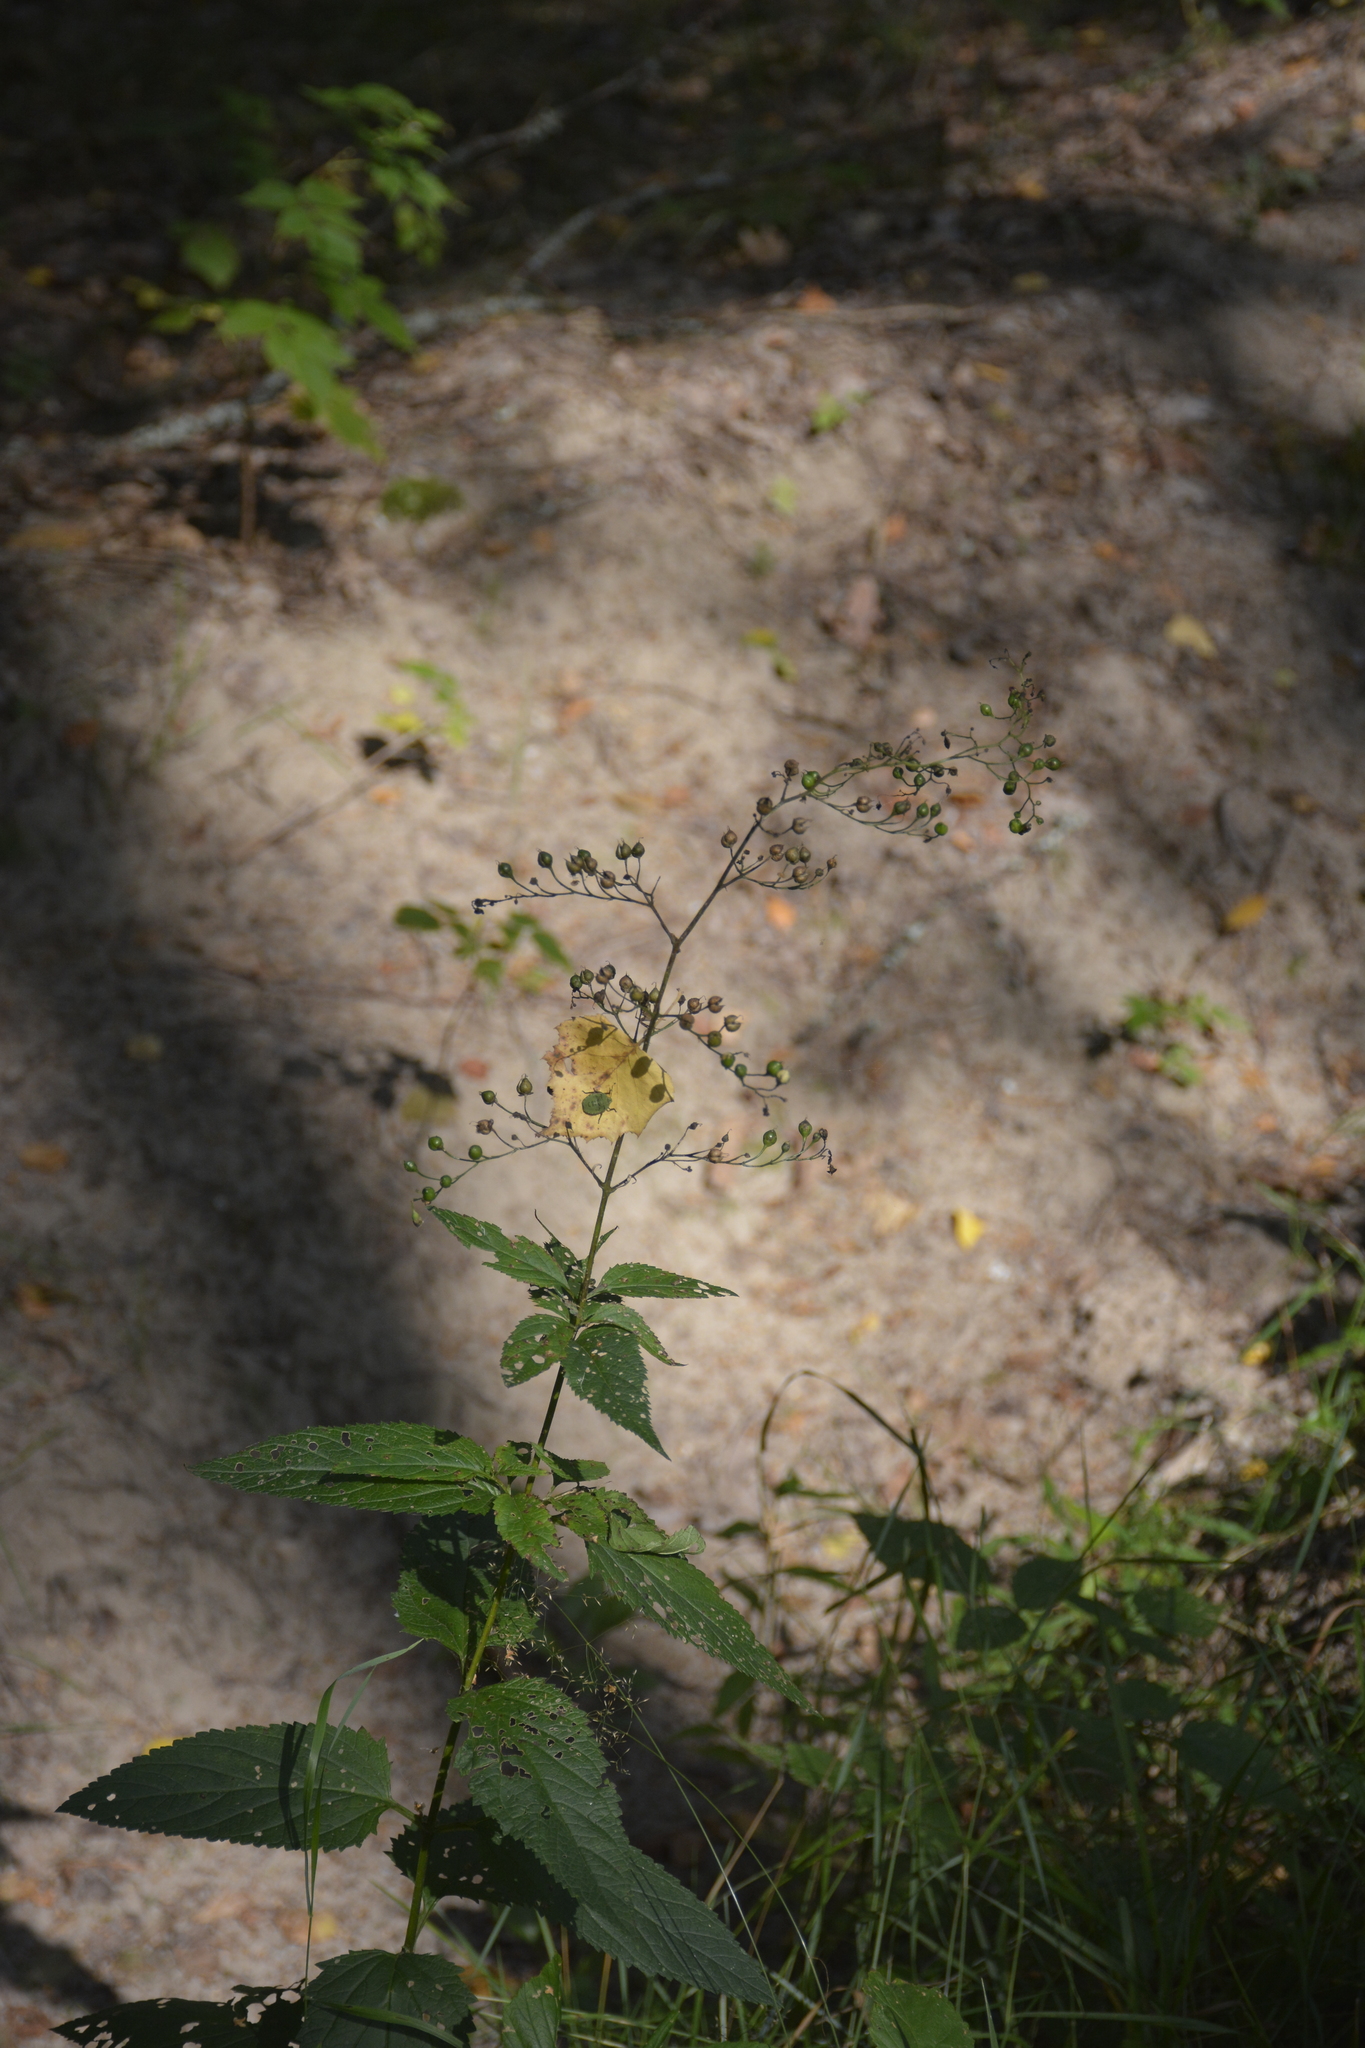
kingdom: Plantae
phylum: Tracheophyta
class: Magnoliopsida
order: Lamiales
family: Scrophulariaceae
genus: Scrophularia
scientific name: Scrophularia nodosa
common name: Common figwort
